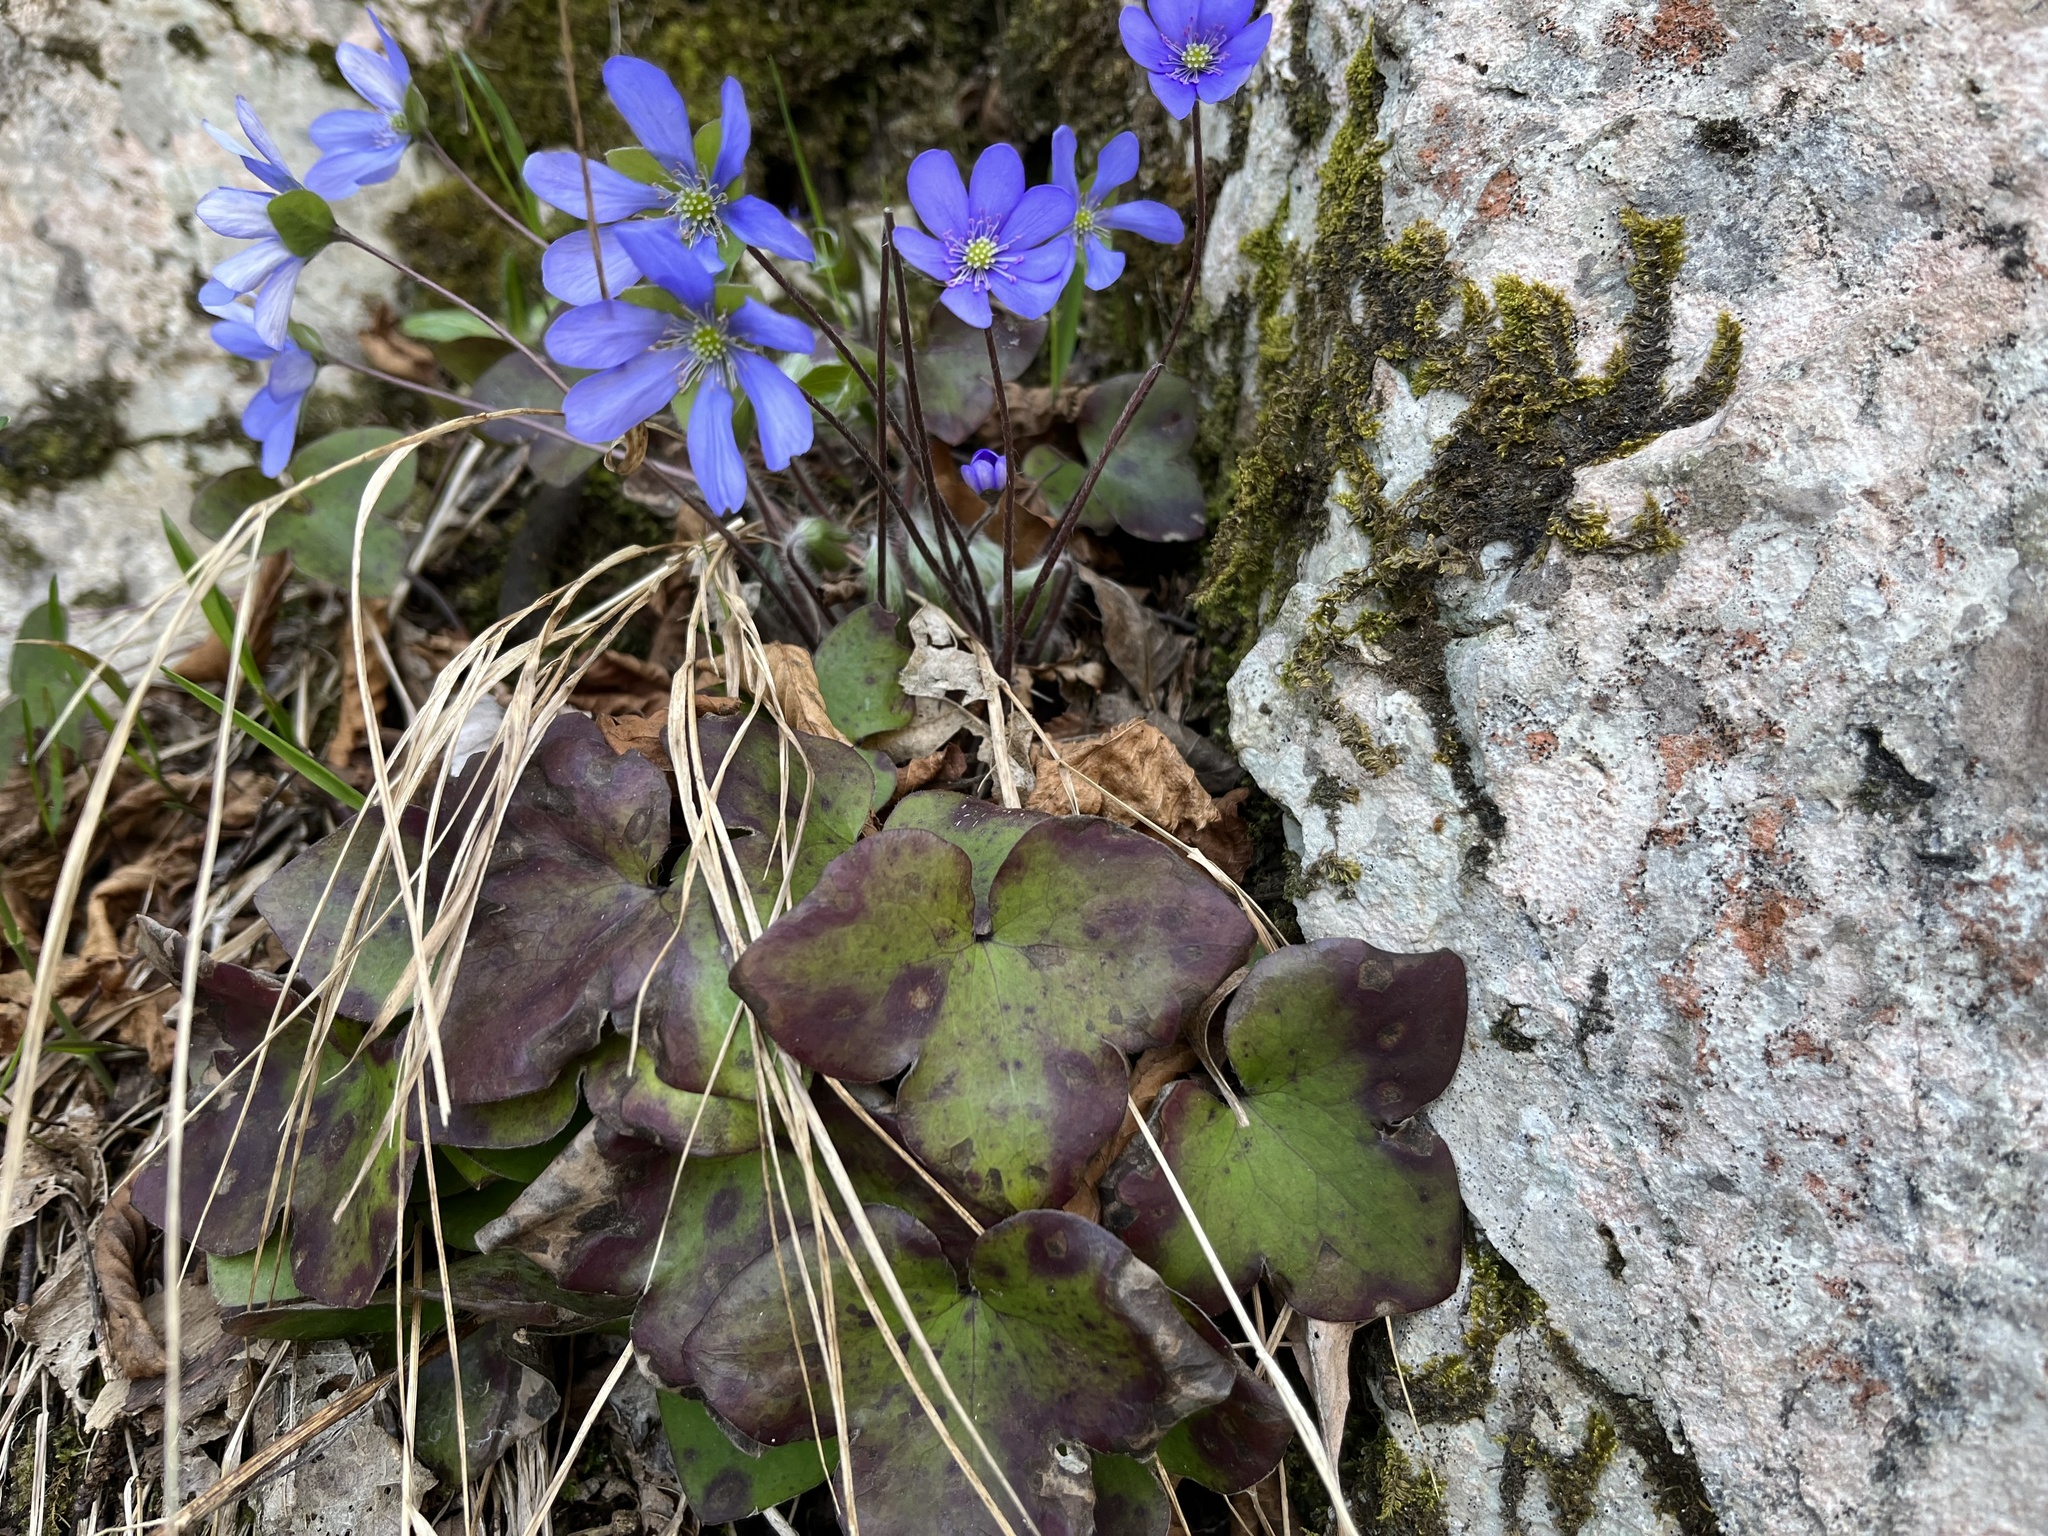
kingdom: Plantae
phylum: Tracheophyta
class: Magnoliopsida
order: Ranunculales
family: Ranunculaceae
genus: Hepatica
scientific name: Hepatica nobilis
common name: Liverleaf
